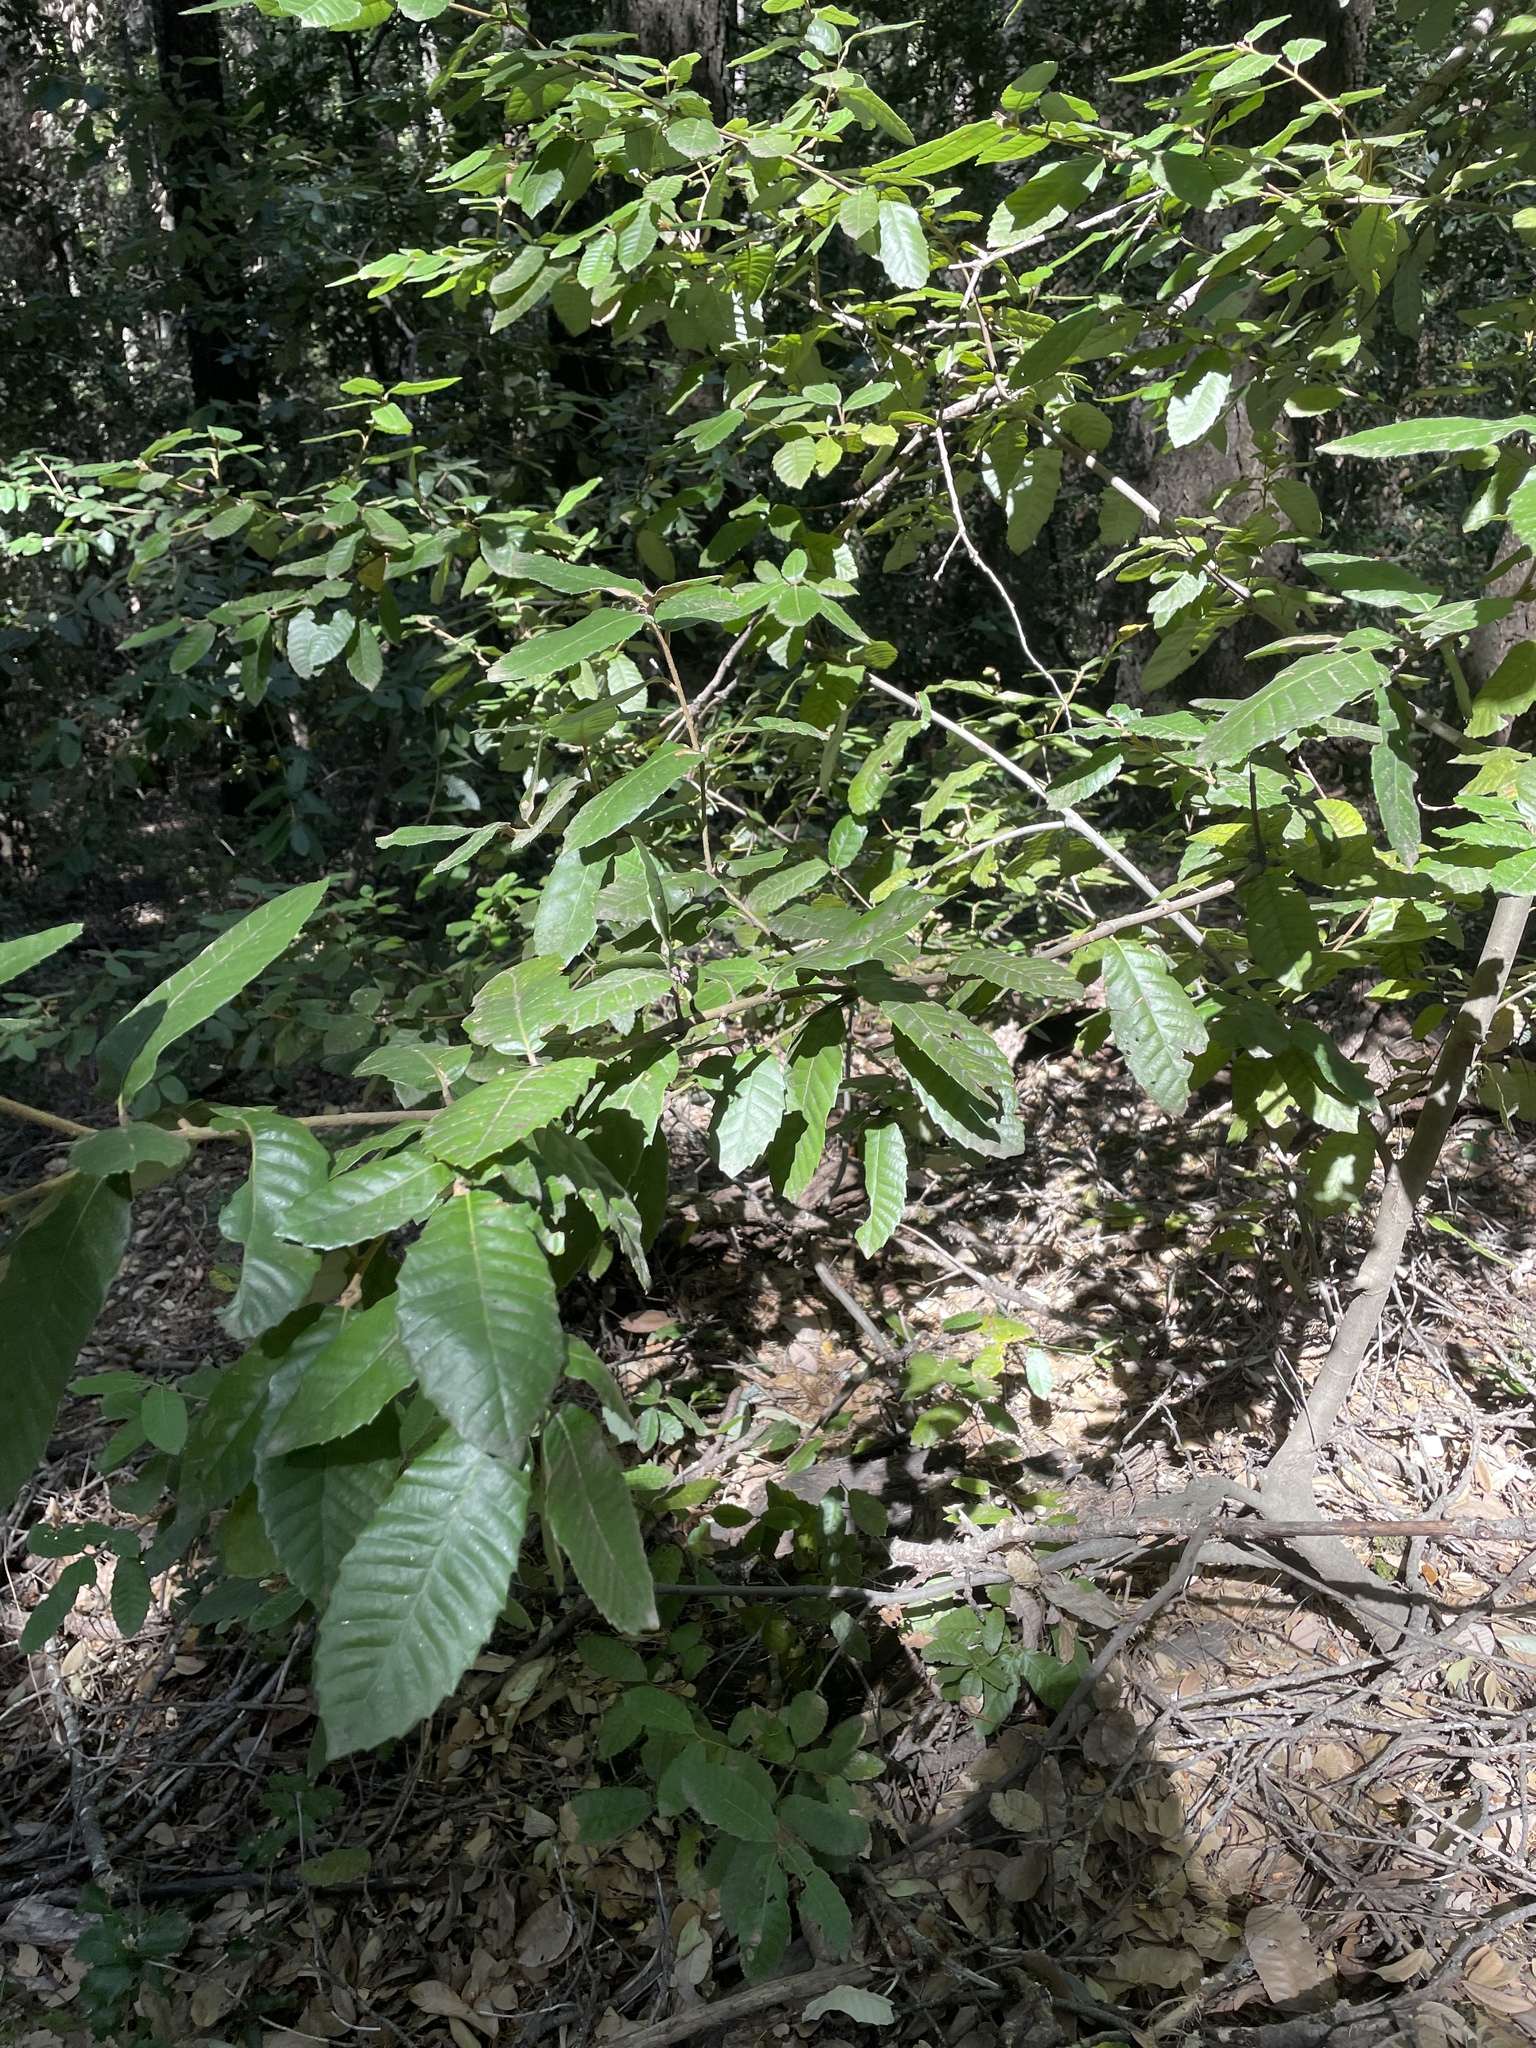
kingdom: Plantae
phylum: Tracheophyta
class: Magnoliopsida
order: Fagales
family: Fagaceae
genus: Notholithocarpus
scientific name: Notholithocarpus densiflorus
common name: Tan bark oak
